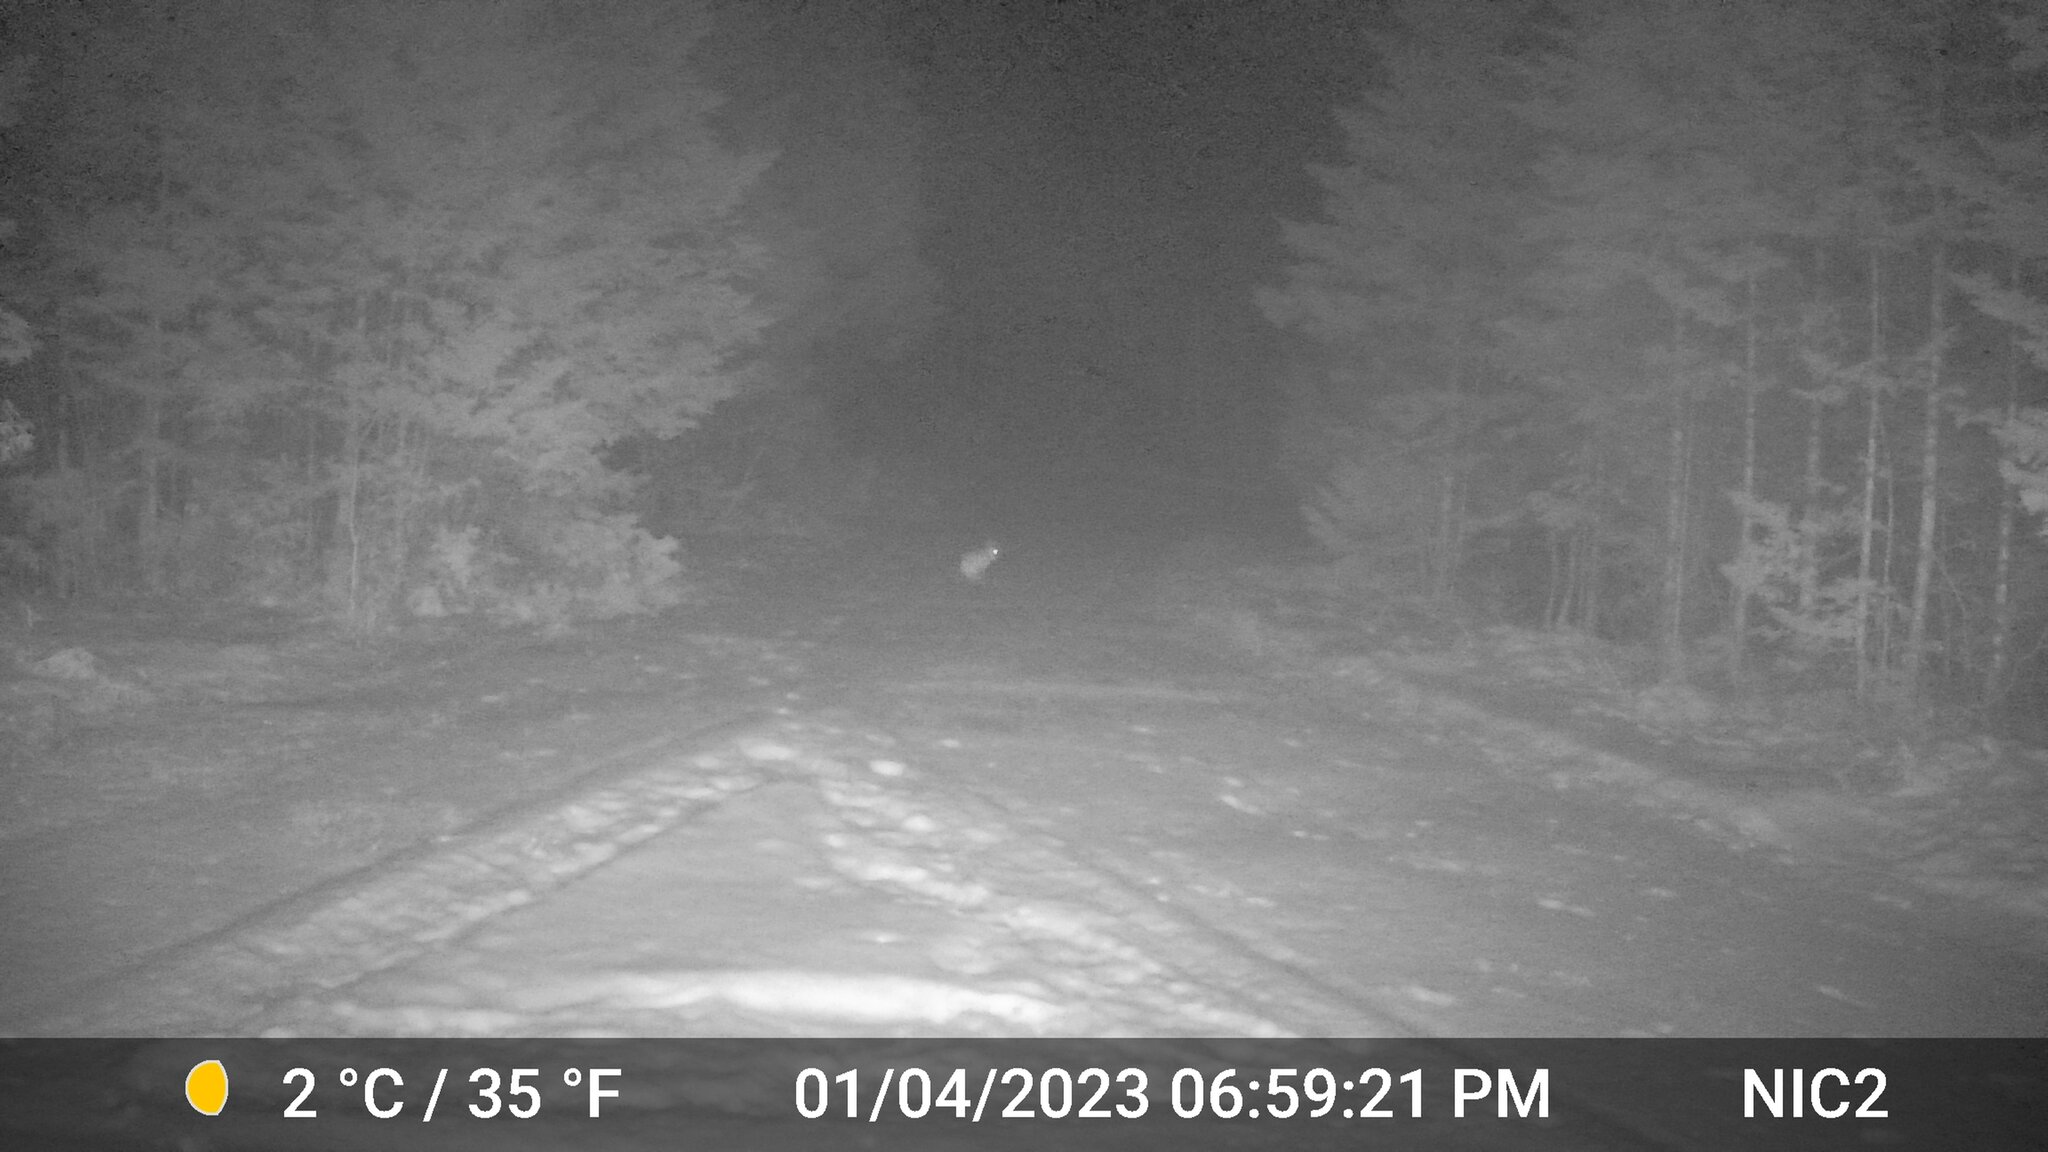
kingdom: Animalia
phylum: Chordata
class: Mammalia
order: Lagomorpha
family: Leporidae
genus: Lepus
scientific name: Lepus americanus
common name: Snowshoe hare
